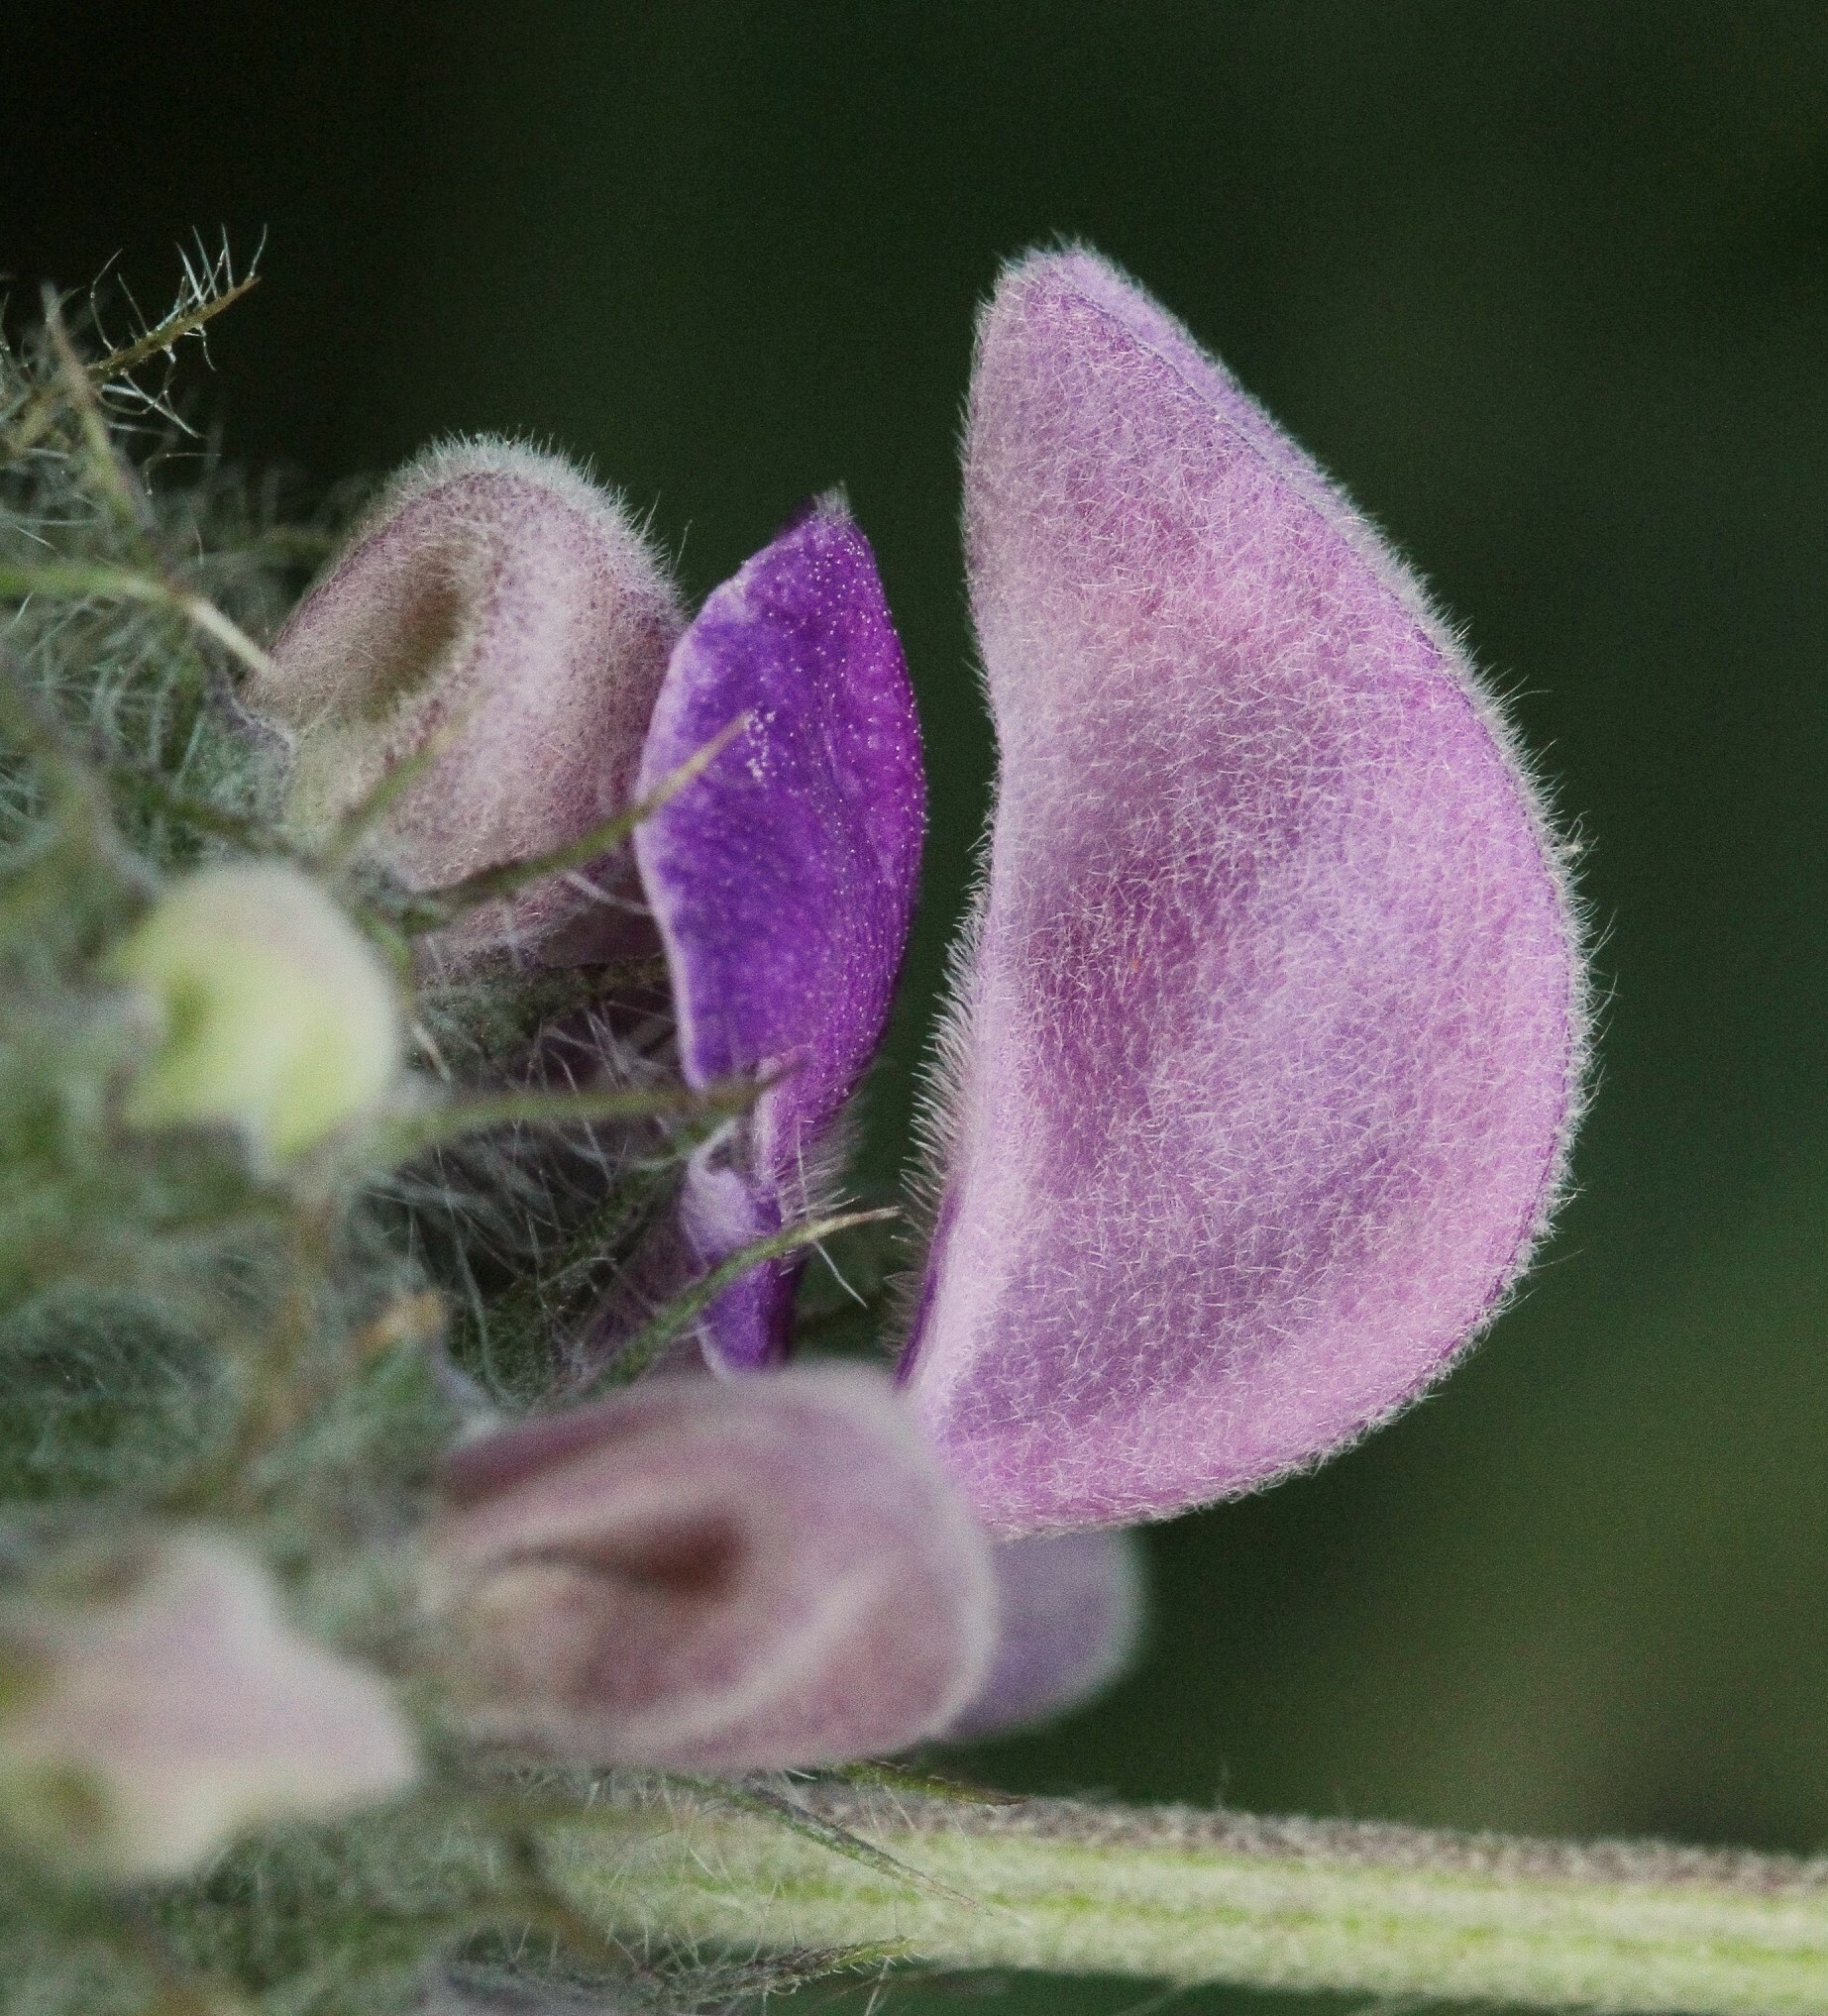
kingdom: Plantae
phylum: Tracheophyta
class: Magnoliopsida
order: Lamiales
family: Lamiaceae
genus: Phlomis
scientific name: Phlomis herba-venti
